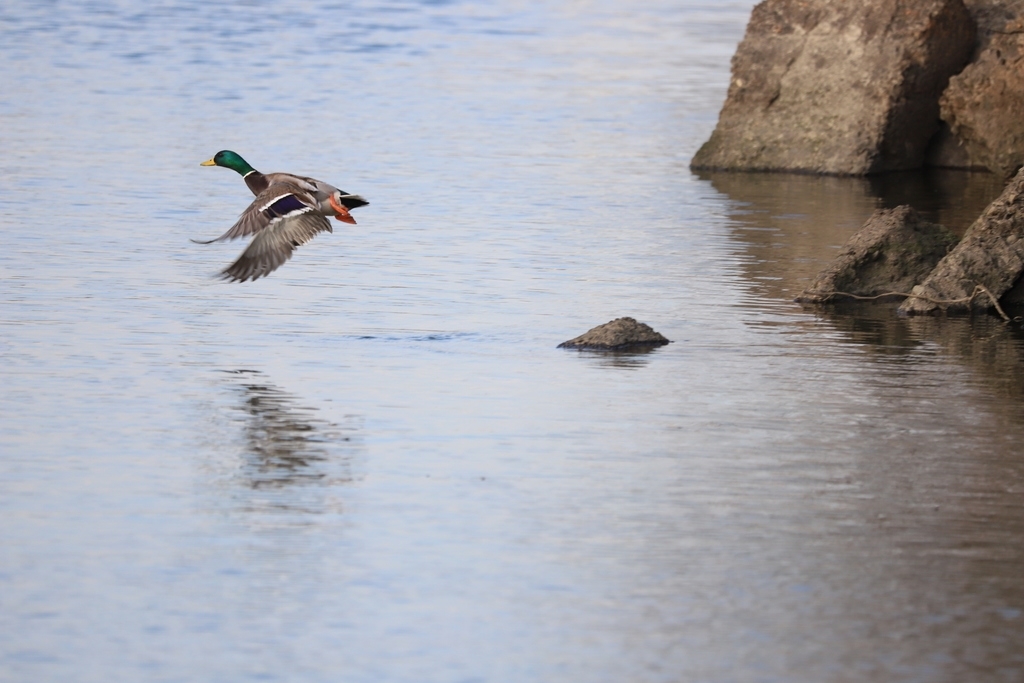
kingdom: Animalia
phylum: Chordata
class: Aves
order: Anseriformes
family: Anatidae
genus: Anas
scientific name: Anas platyrhynchos
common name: Mallard
